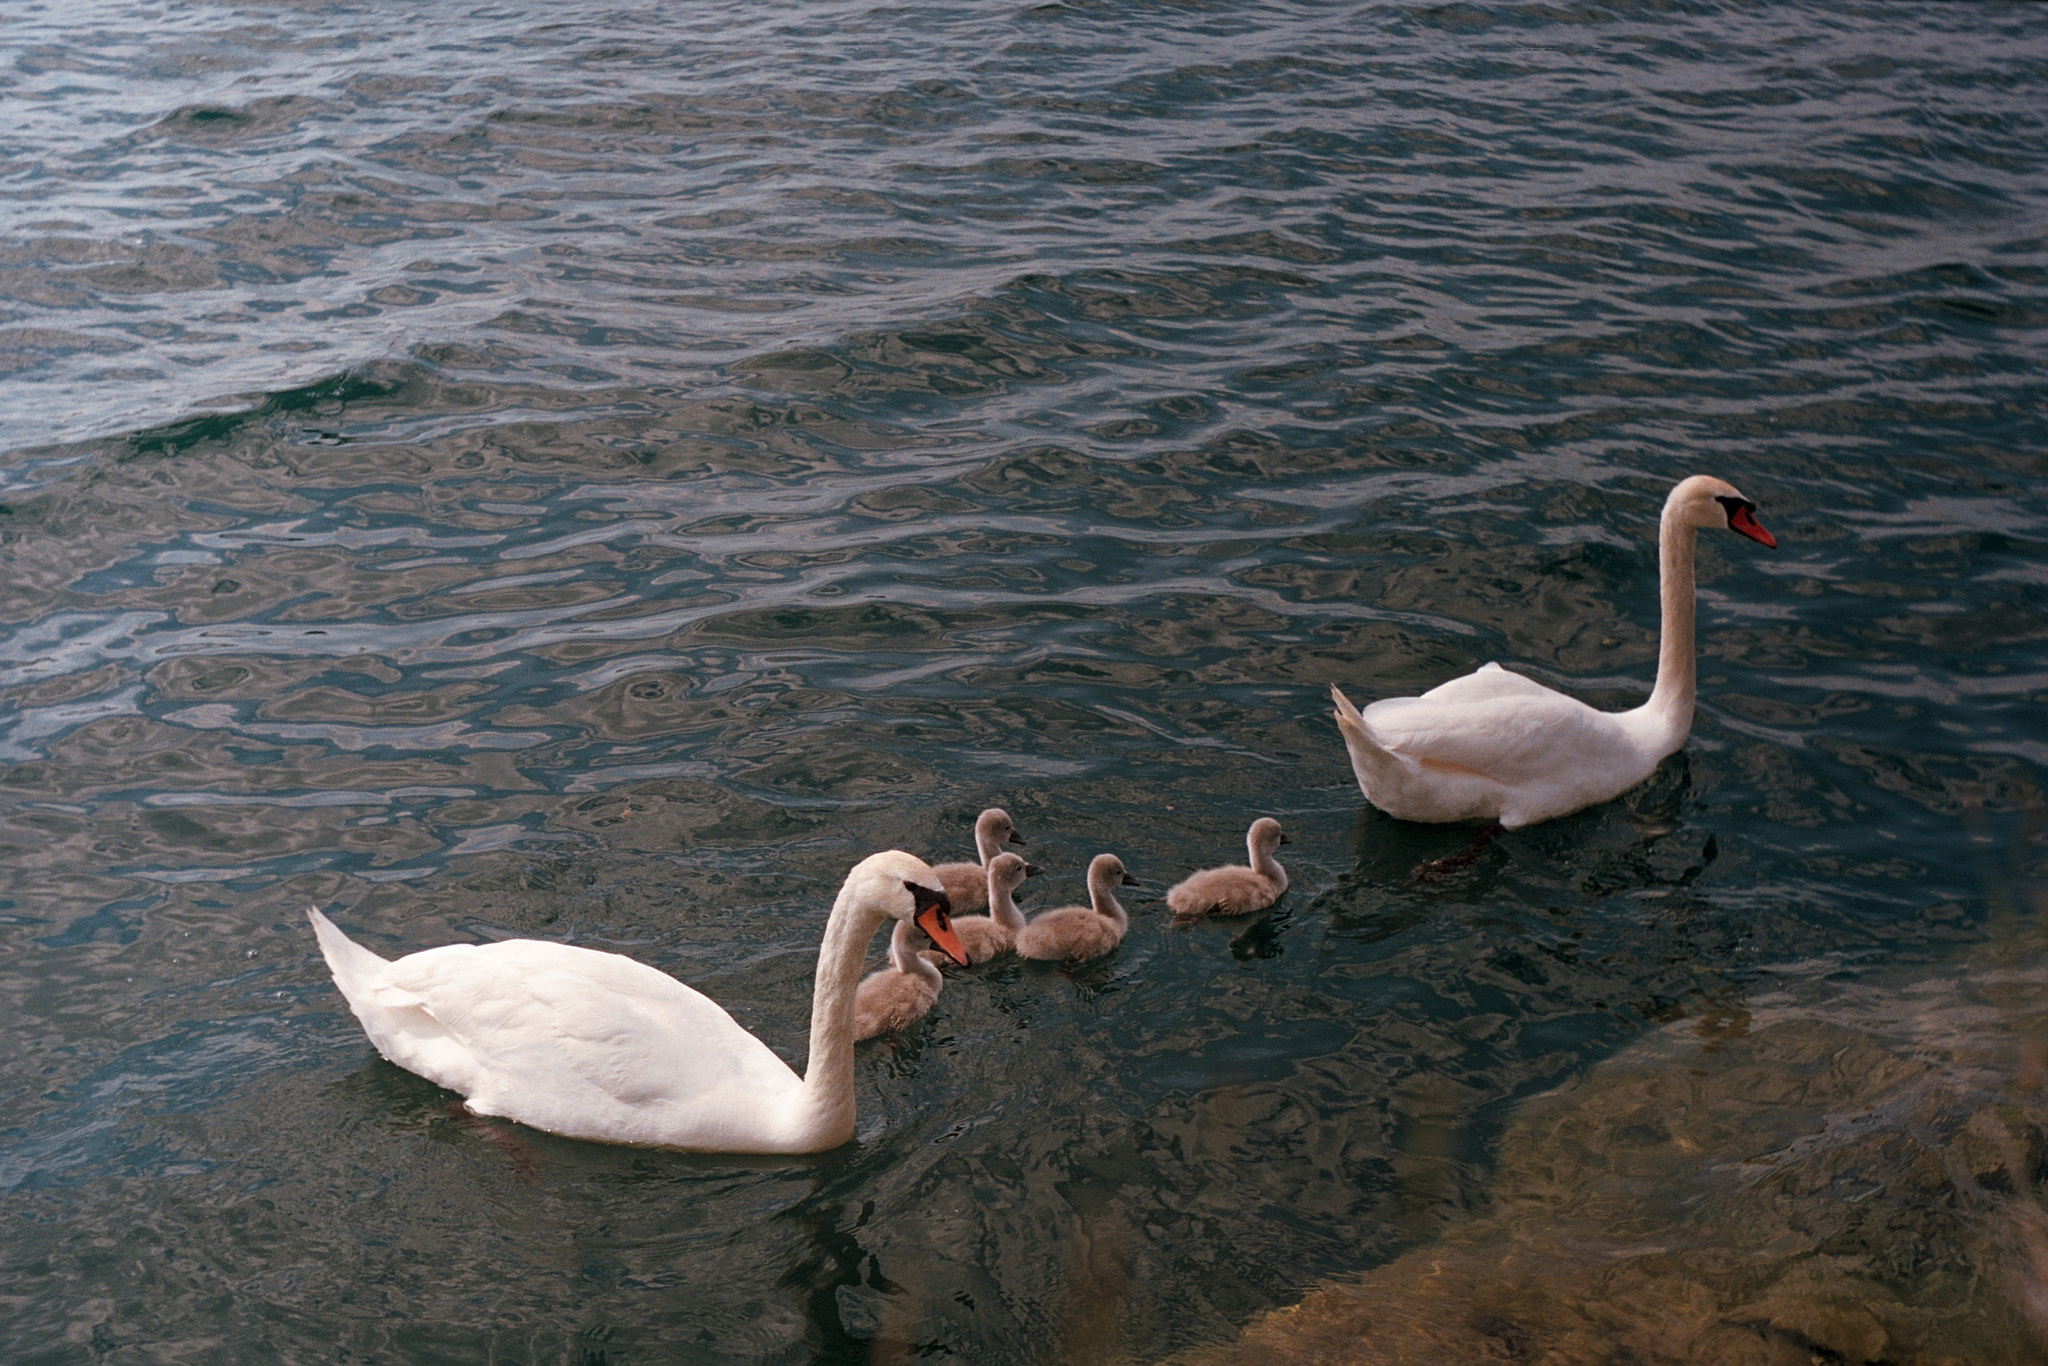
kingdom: Animalia
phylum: Chordata
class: Aves
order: Anseriformes
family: Anatidae
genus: Cygnus
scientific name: Cygnus olor
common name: Mute swan
